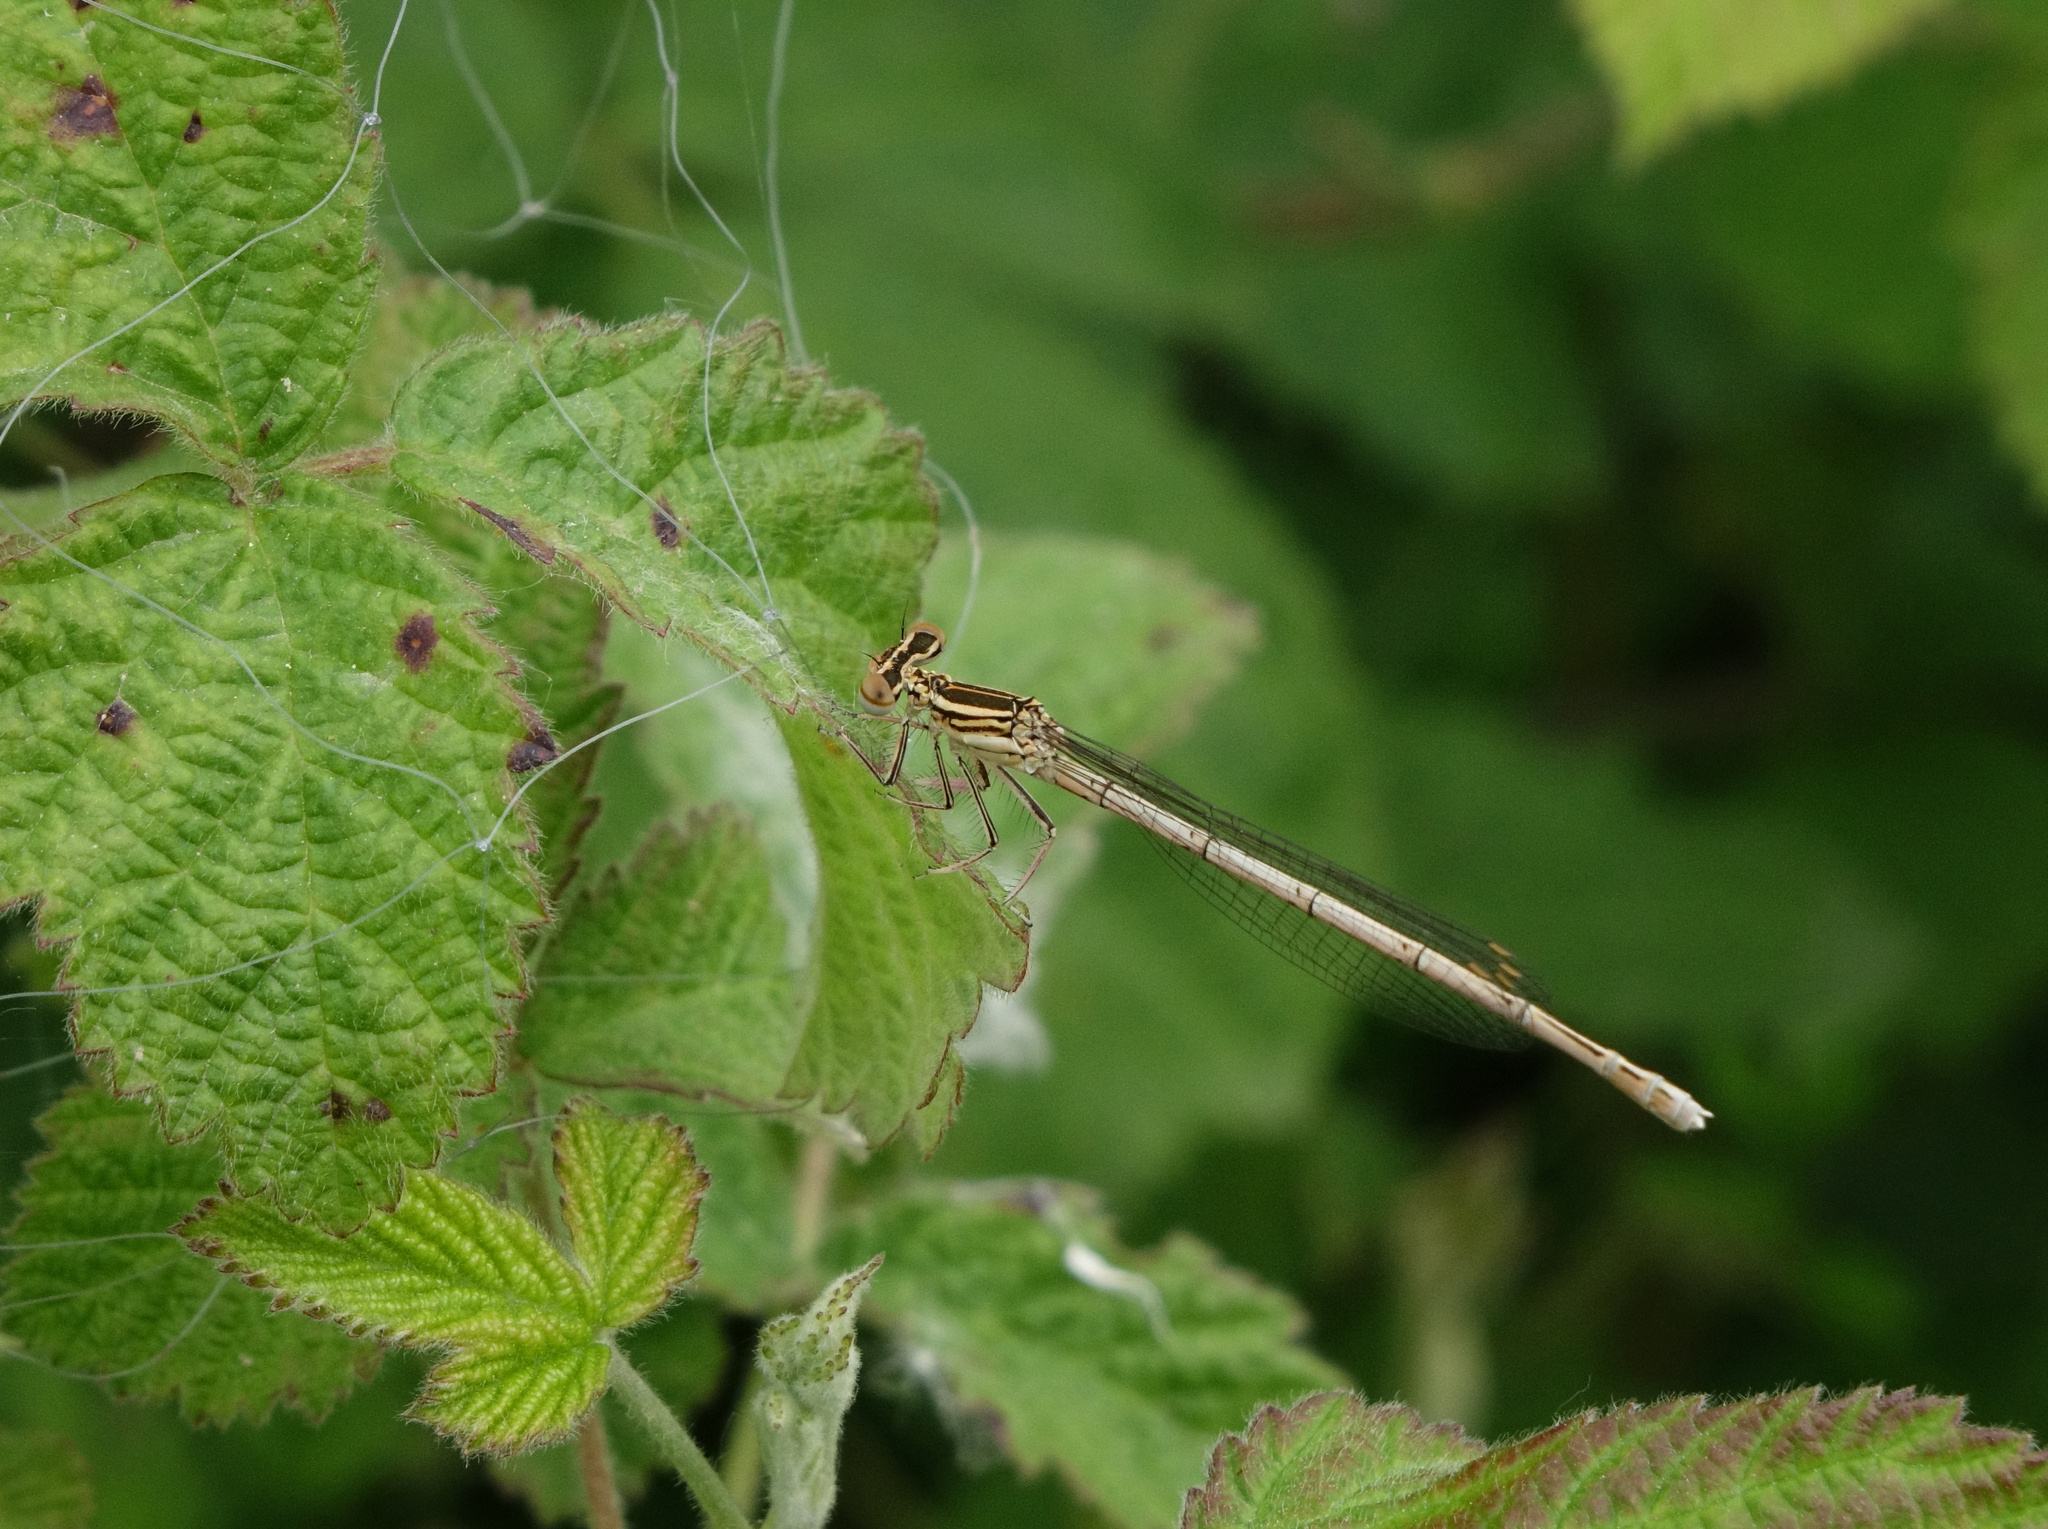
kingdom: Animalia
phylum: Arthropoda
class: Insecta
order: Odonata
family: Platycnemididae
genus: Platycnemis
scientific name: Platycnemis pennipes
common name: White-legged damselfly
